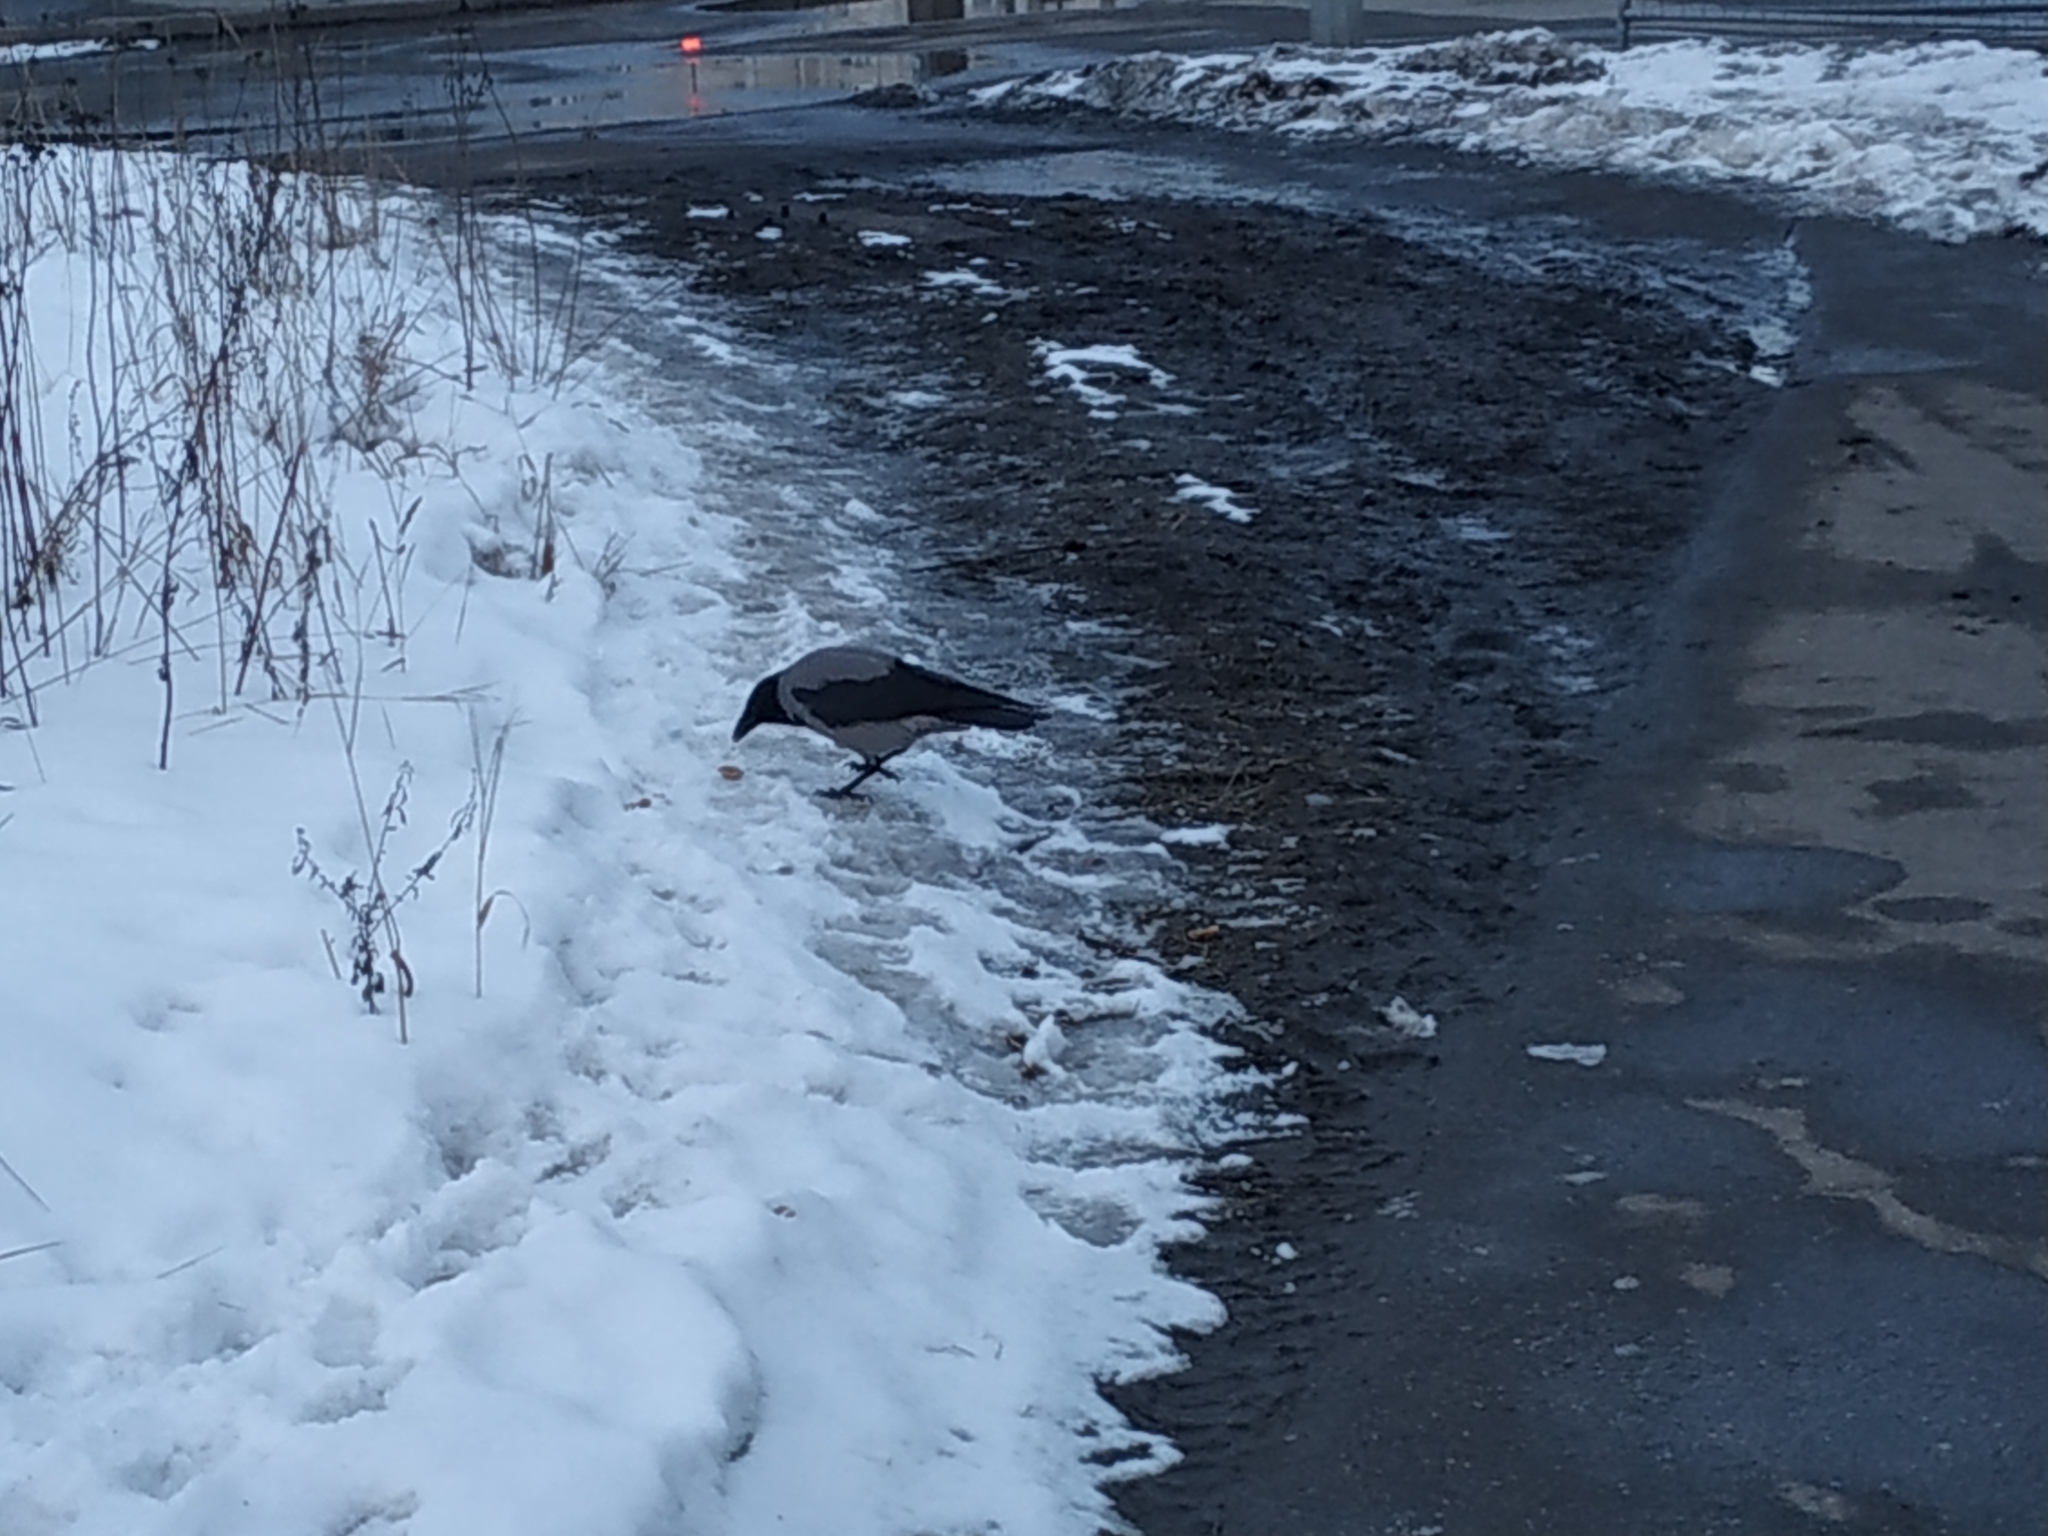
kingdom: Animalia
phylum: Chordata
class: Aves
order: Passeriformes
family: Corvidae
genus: Corvus
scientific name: Corvus cornix
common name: Hooded crow
